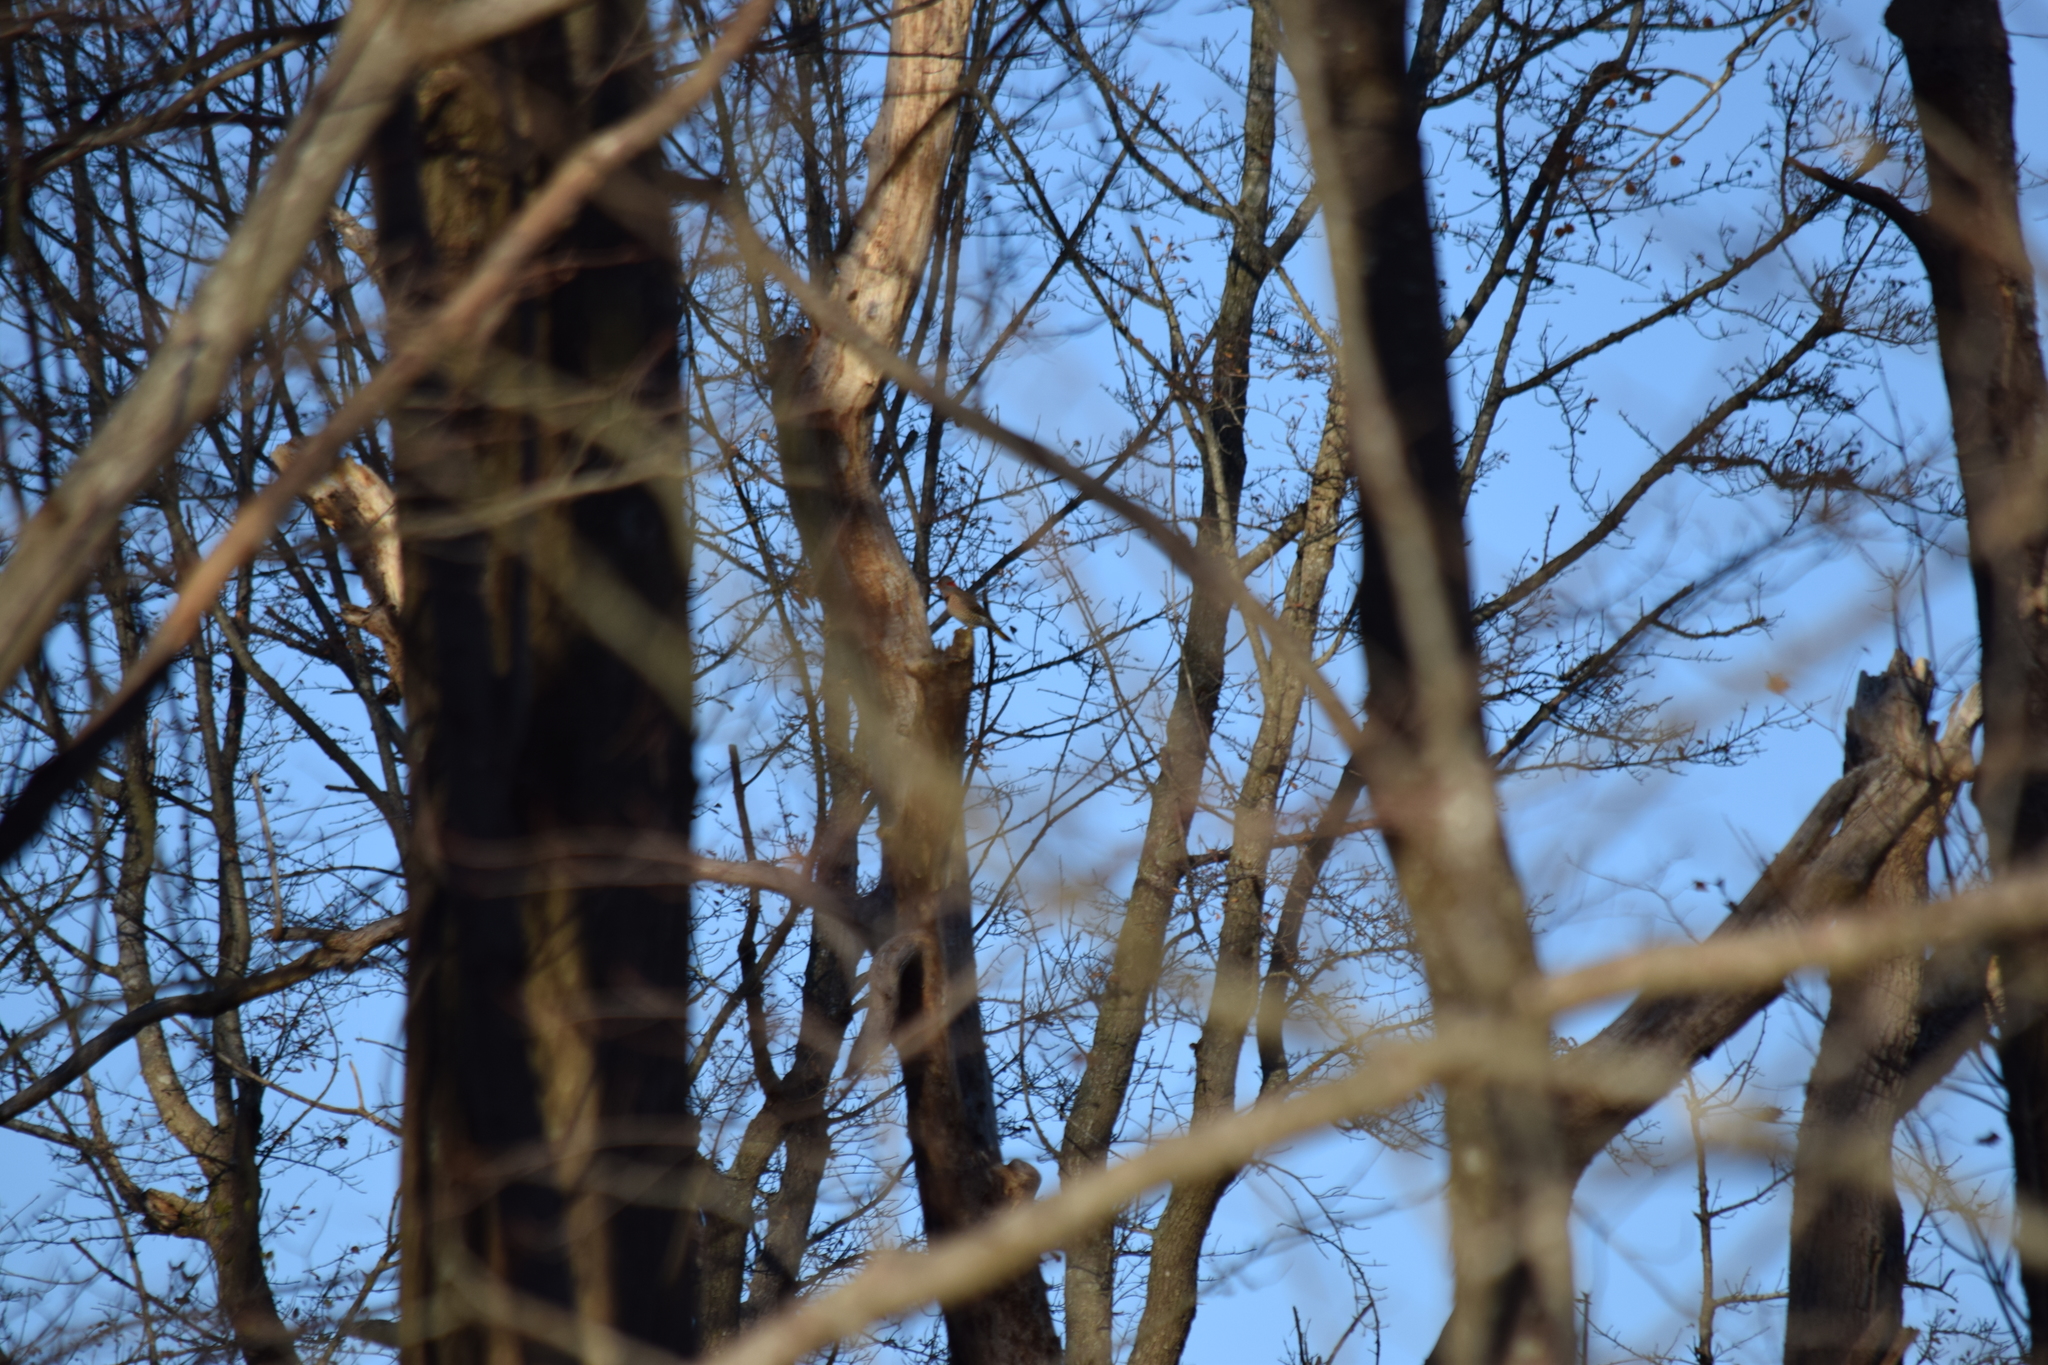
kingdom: Animalia
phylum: Chordata
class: Aves
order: Piciformes
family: Picidae
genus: Colaptes
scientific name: Colaptes auratus
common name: Northern flicker
